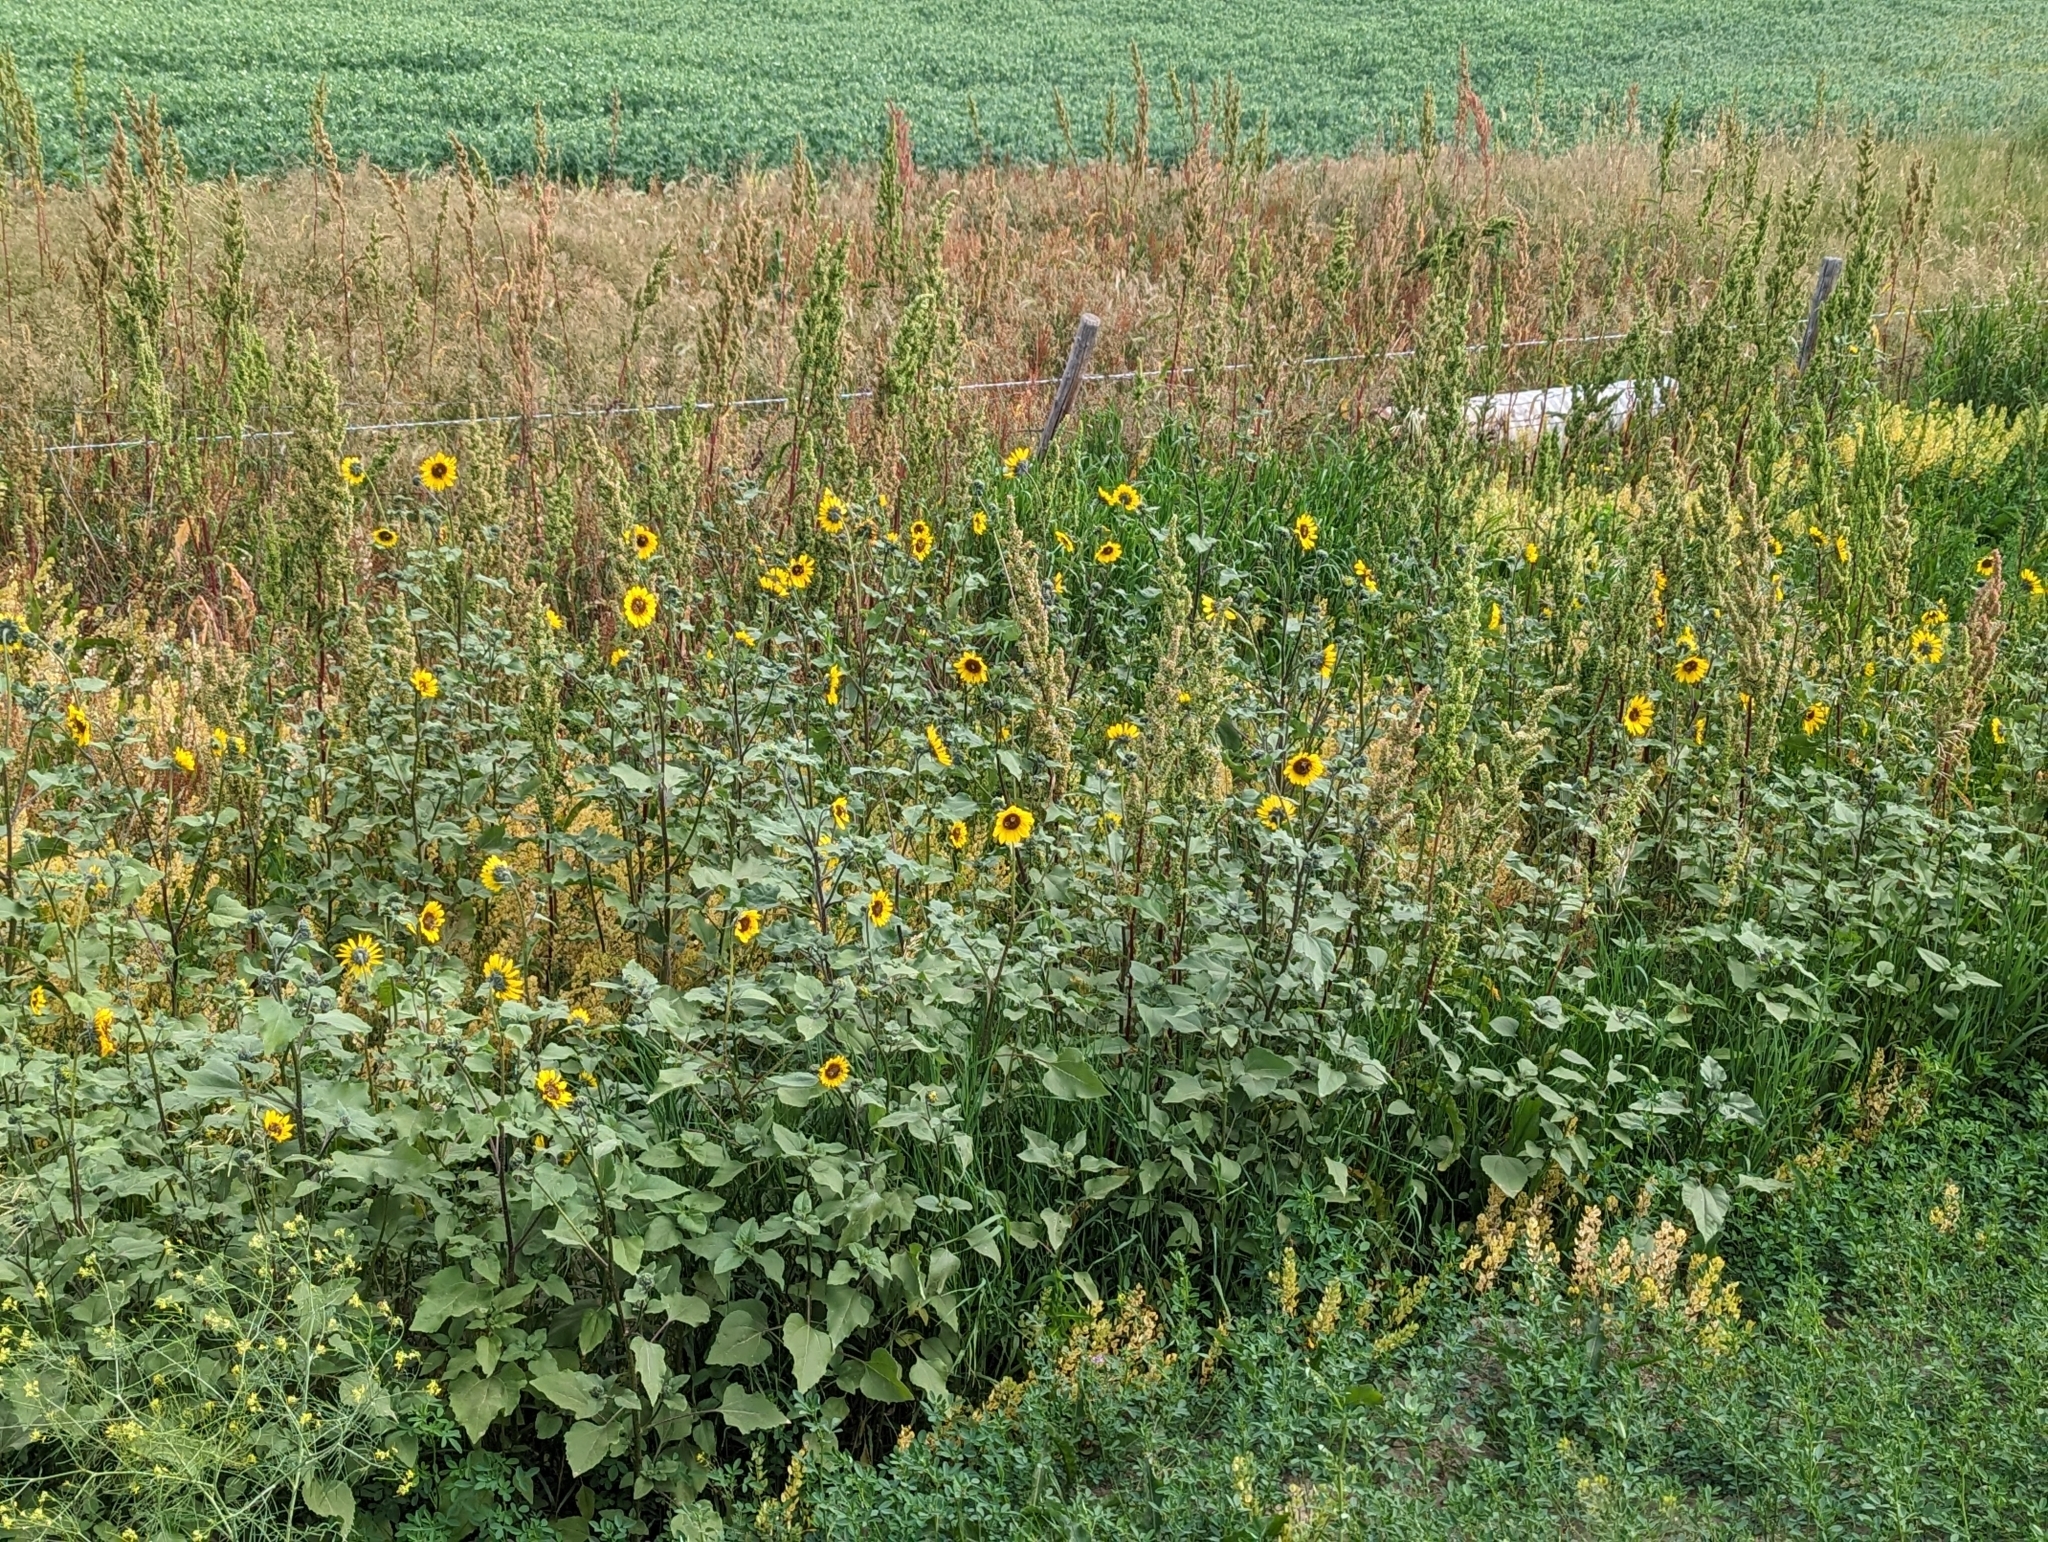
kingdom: Plantae
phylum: Tracheophyta
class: Magnoliopsida
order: Asterales
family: Asteraceae
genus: Helianthus
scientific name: Helianthus annuus
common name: Sunflower
